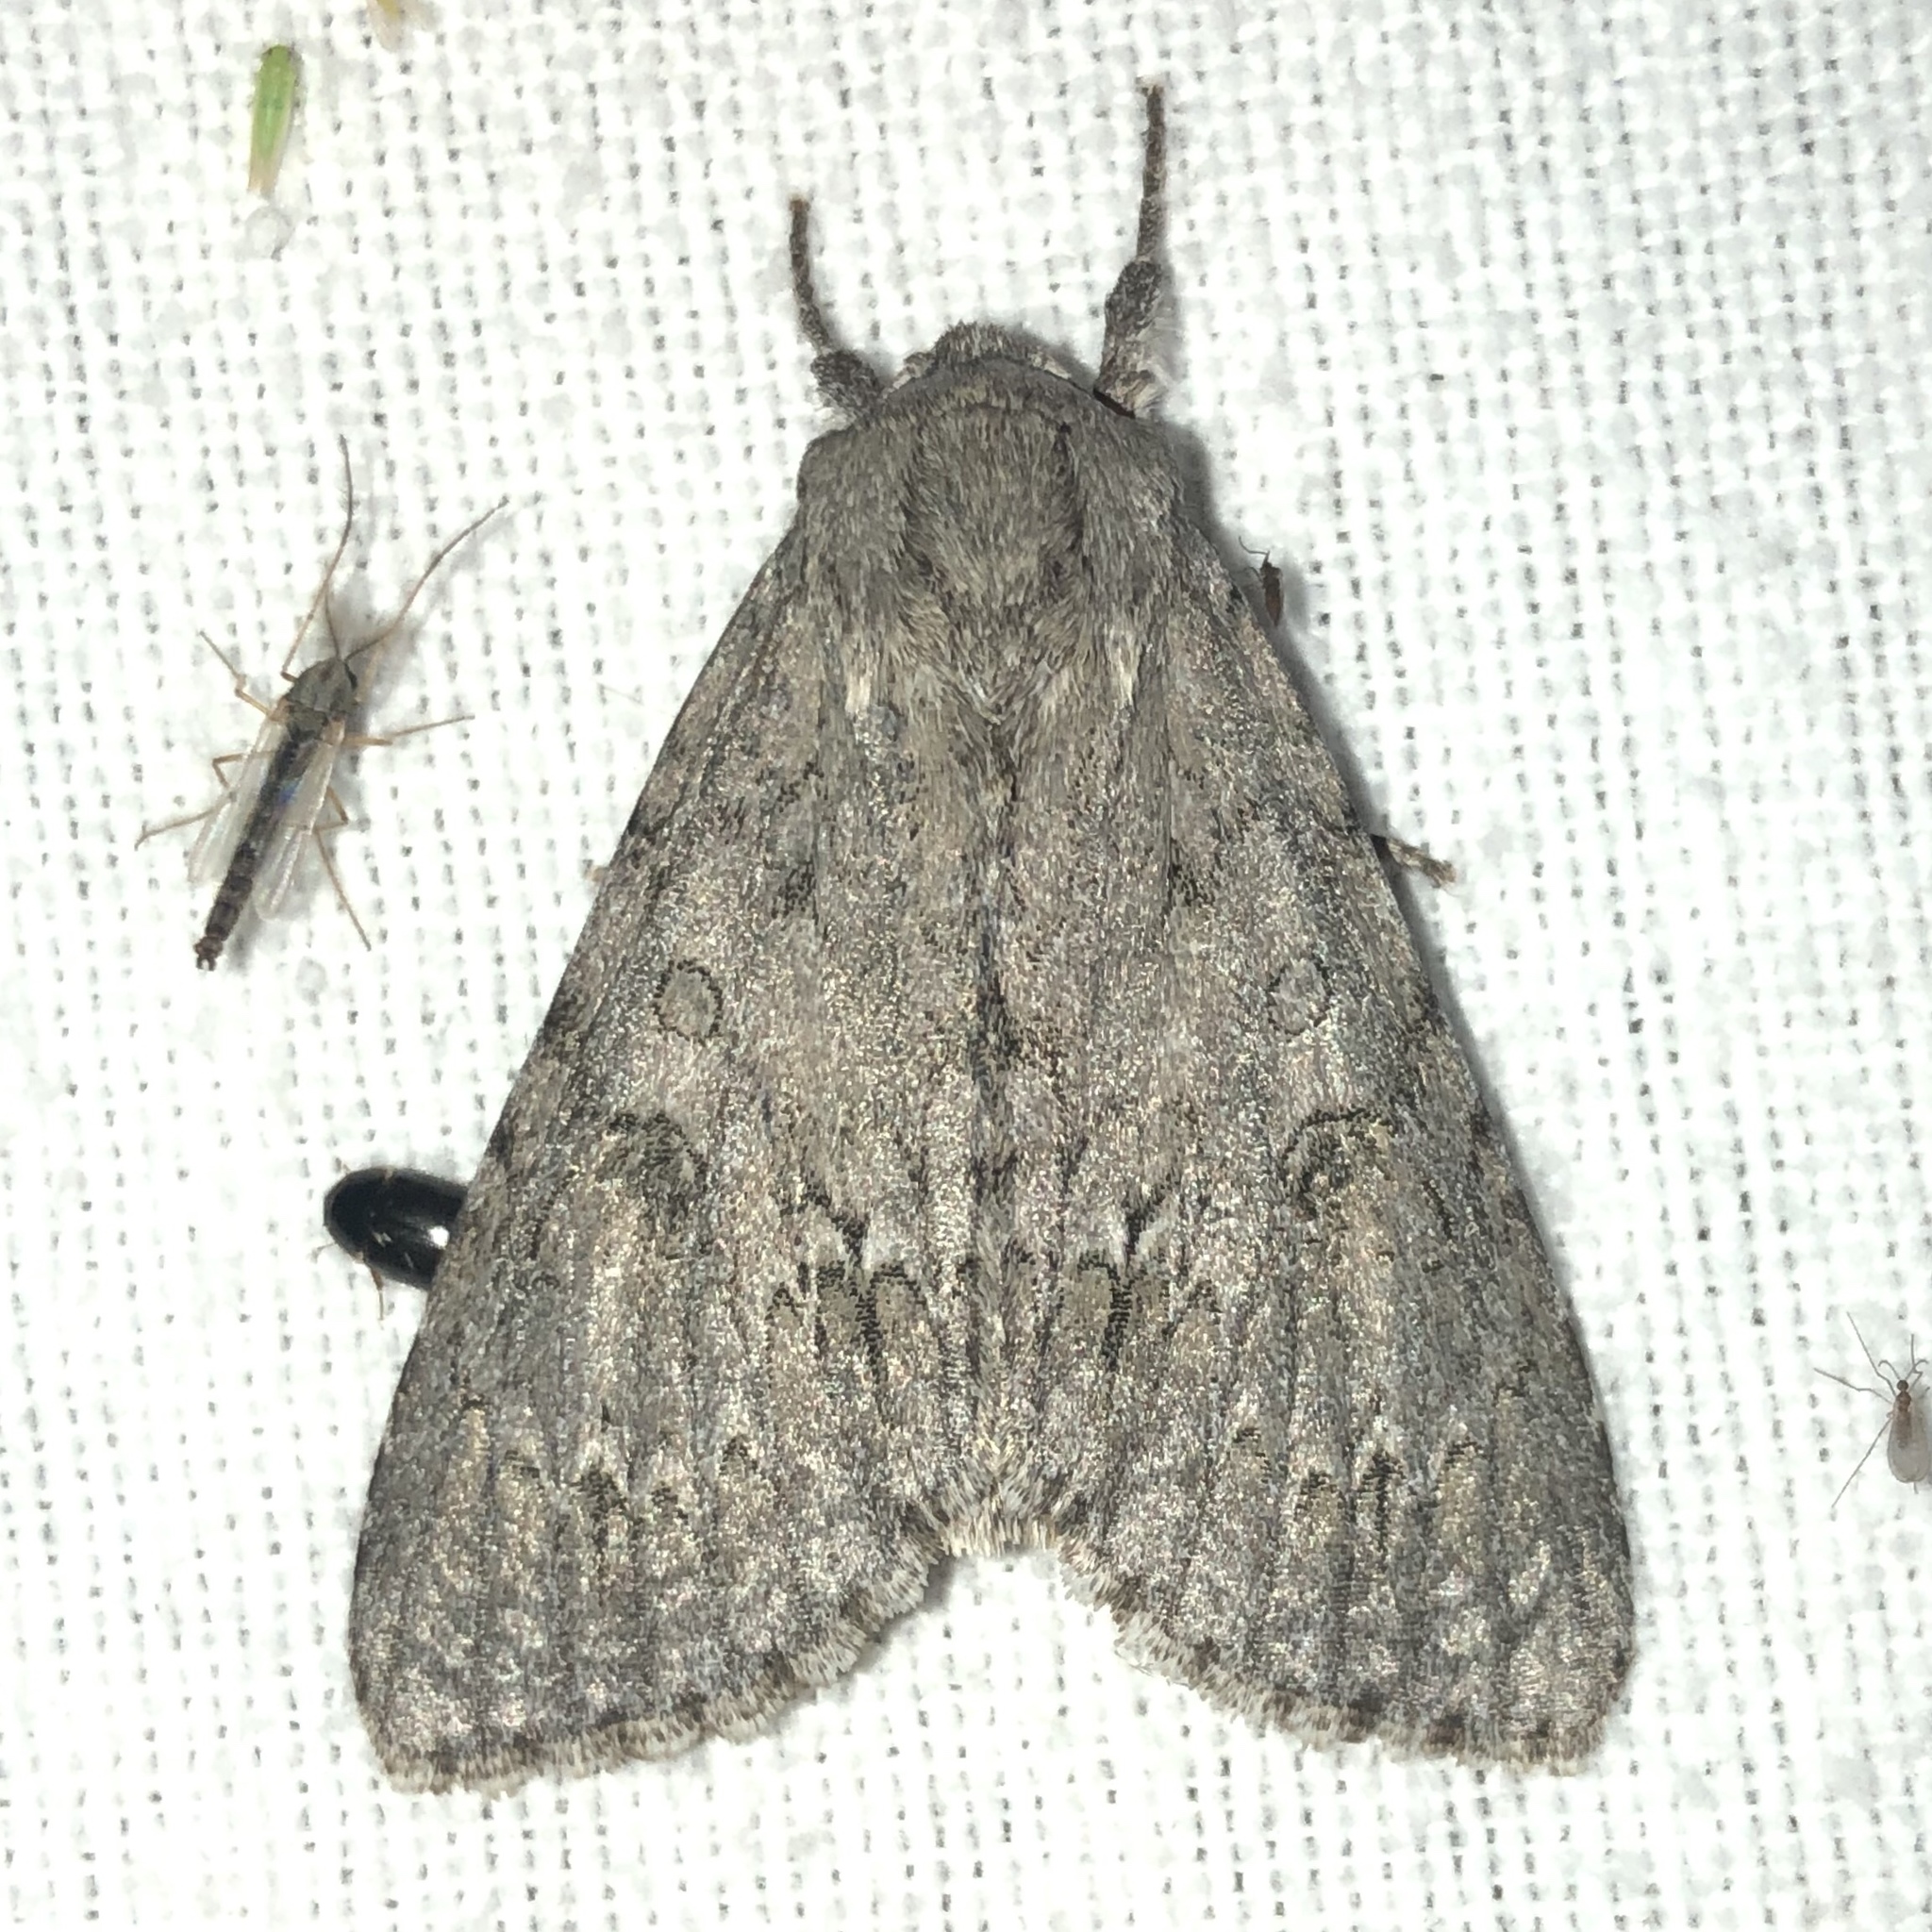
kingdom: Animalia
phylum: Arthropoda
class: Insecta
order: Lepidoptera
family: Noctuidae
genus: Acronicta
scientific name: Acronicta americana
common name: American dagger
